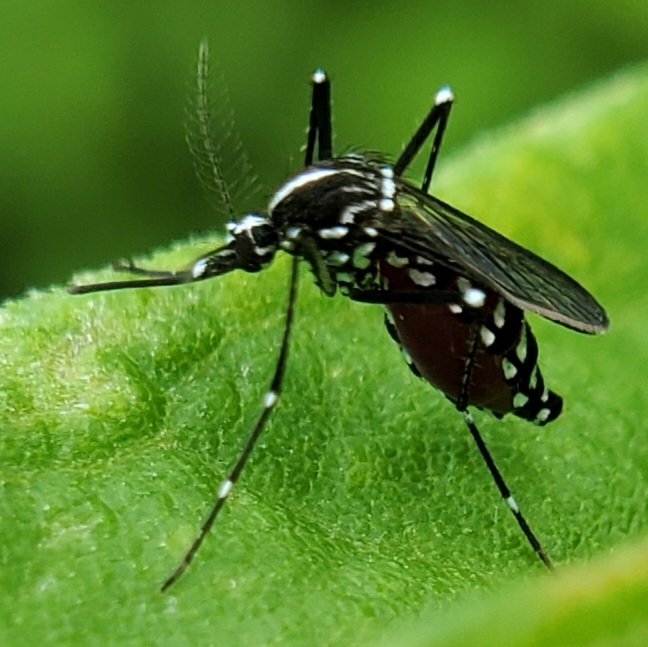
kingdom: Animalia
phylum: Arthropoda
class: Insecta
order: Diptera
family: Culicidae
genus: Aedes
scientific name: Aedes albopictus
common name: Tiger mosquito
